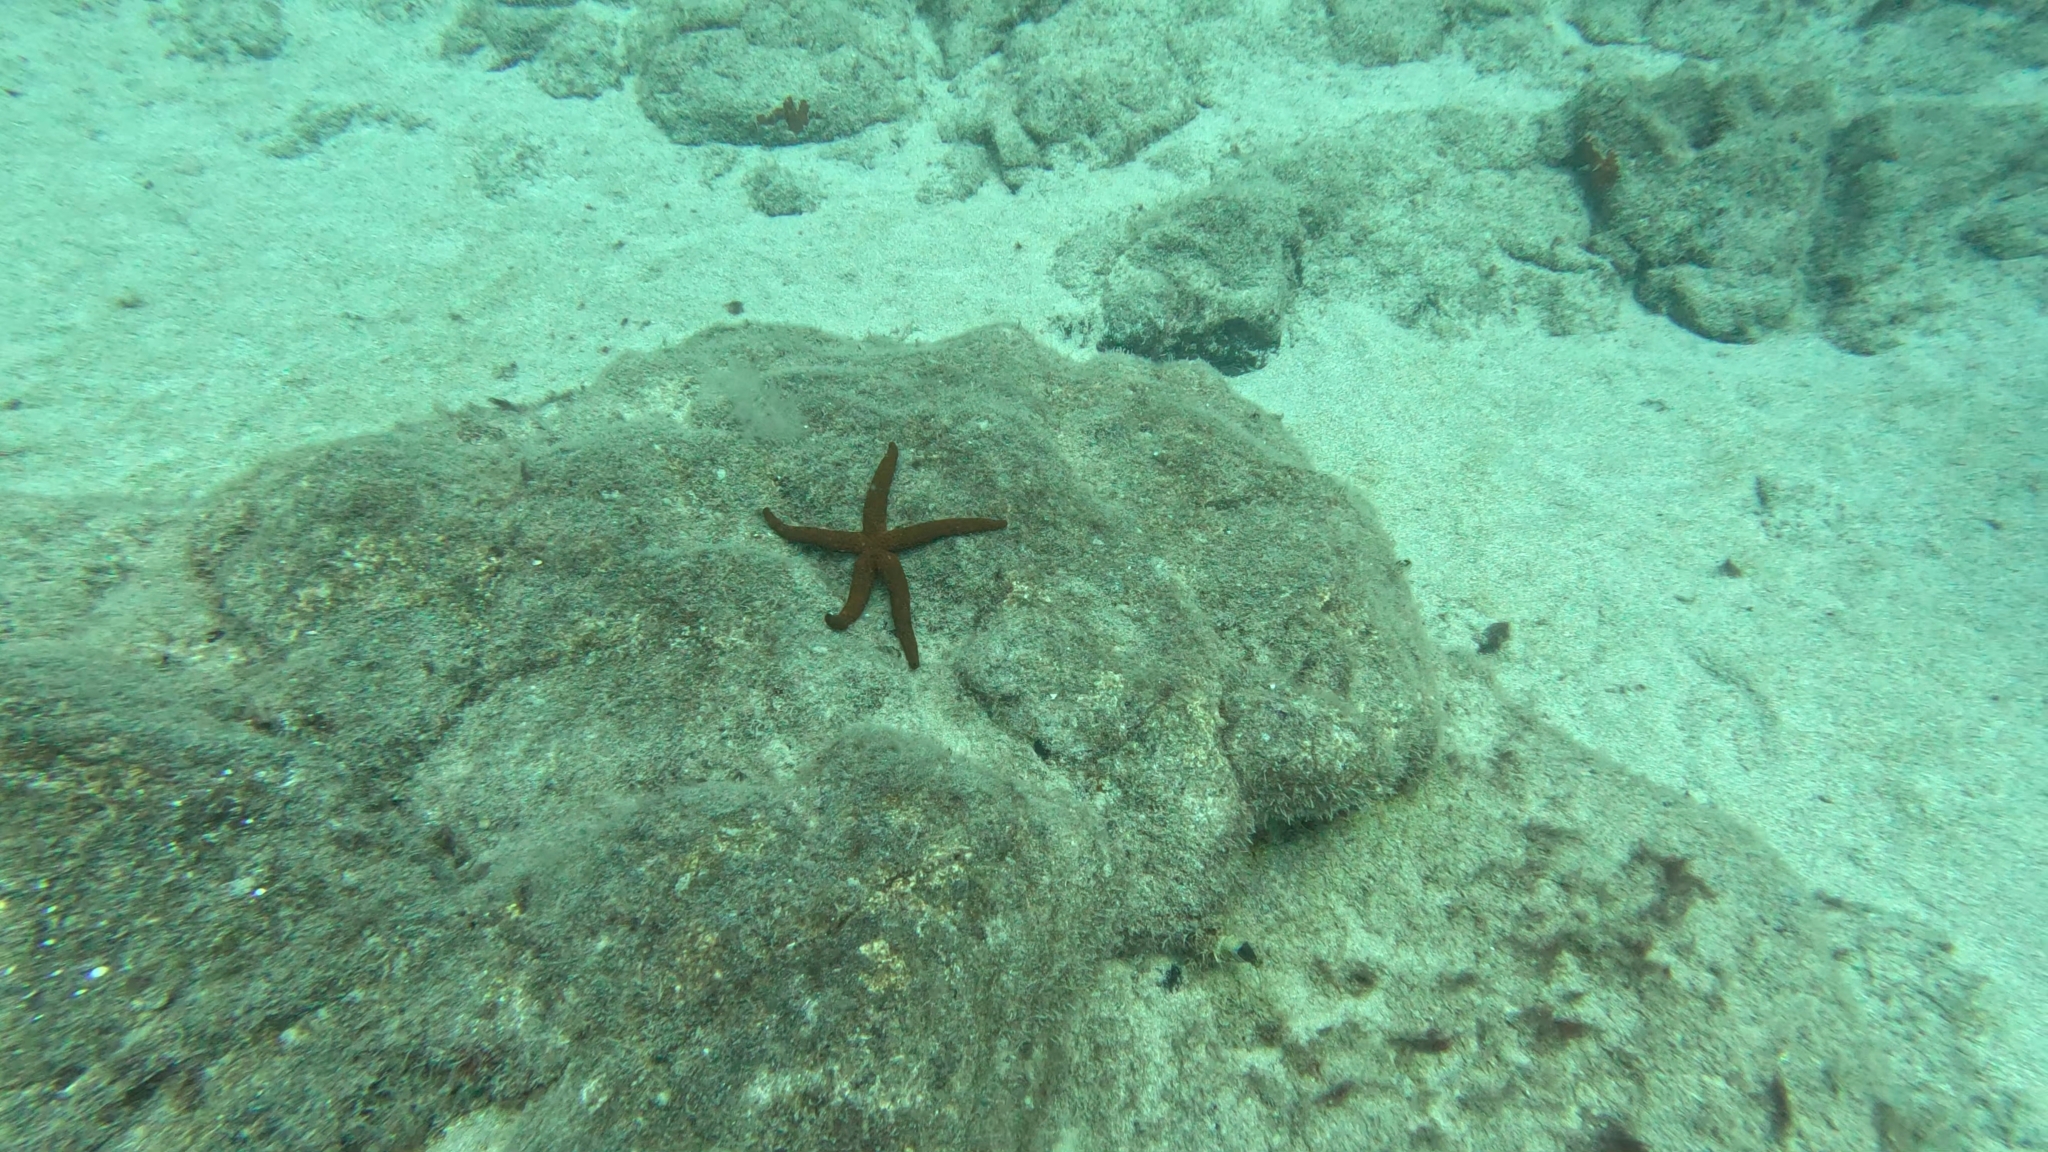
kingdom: Animalia
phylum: Echinodermata
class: Asteroidea
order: Spinulosida
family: Echinasteridae
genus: Echinaster
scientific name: Echinaster sepositus
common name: Red starfish
